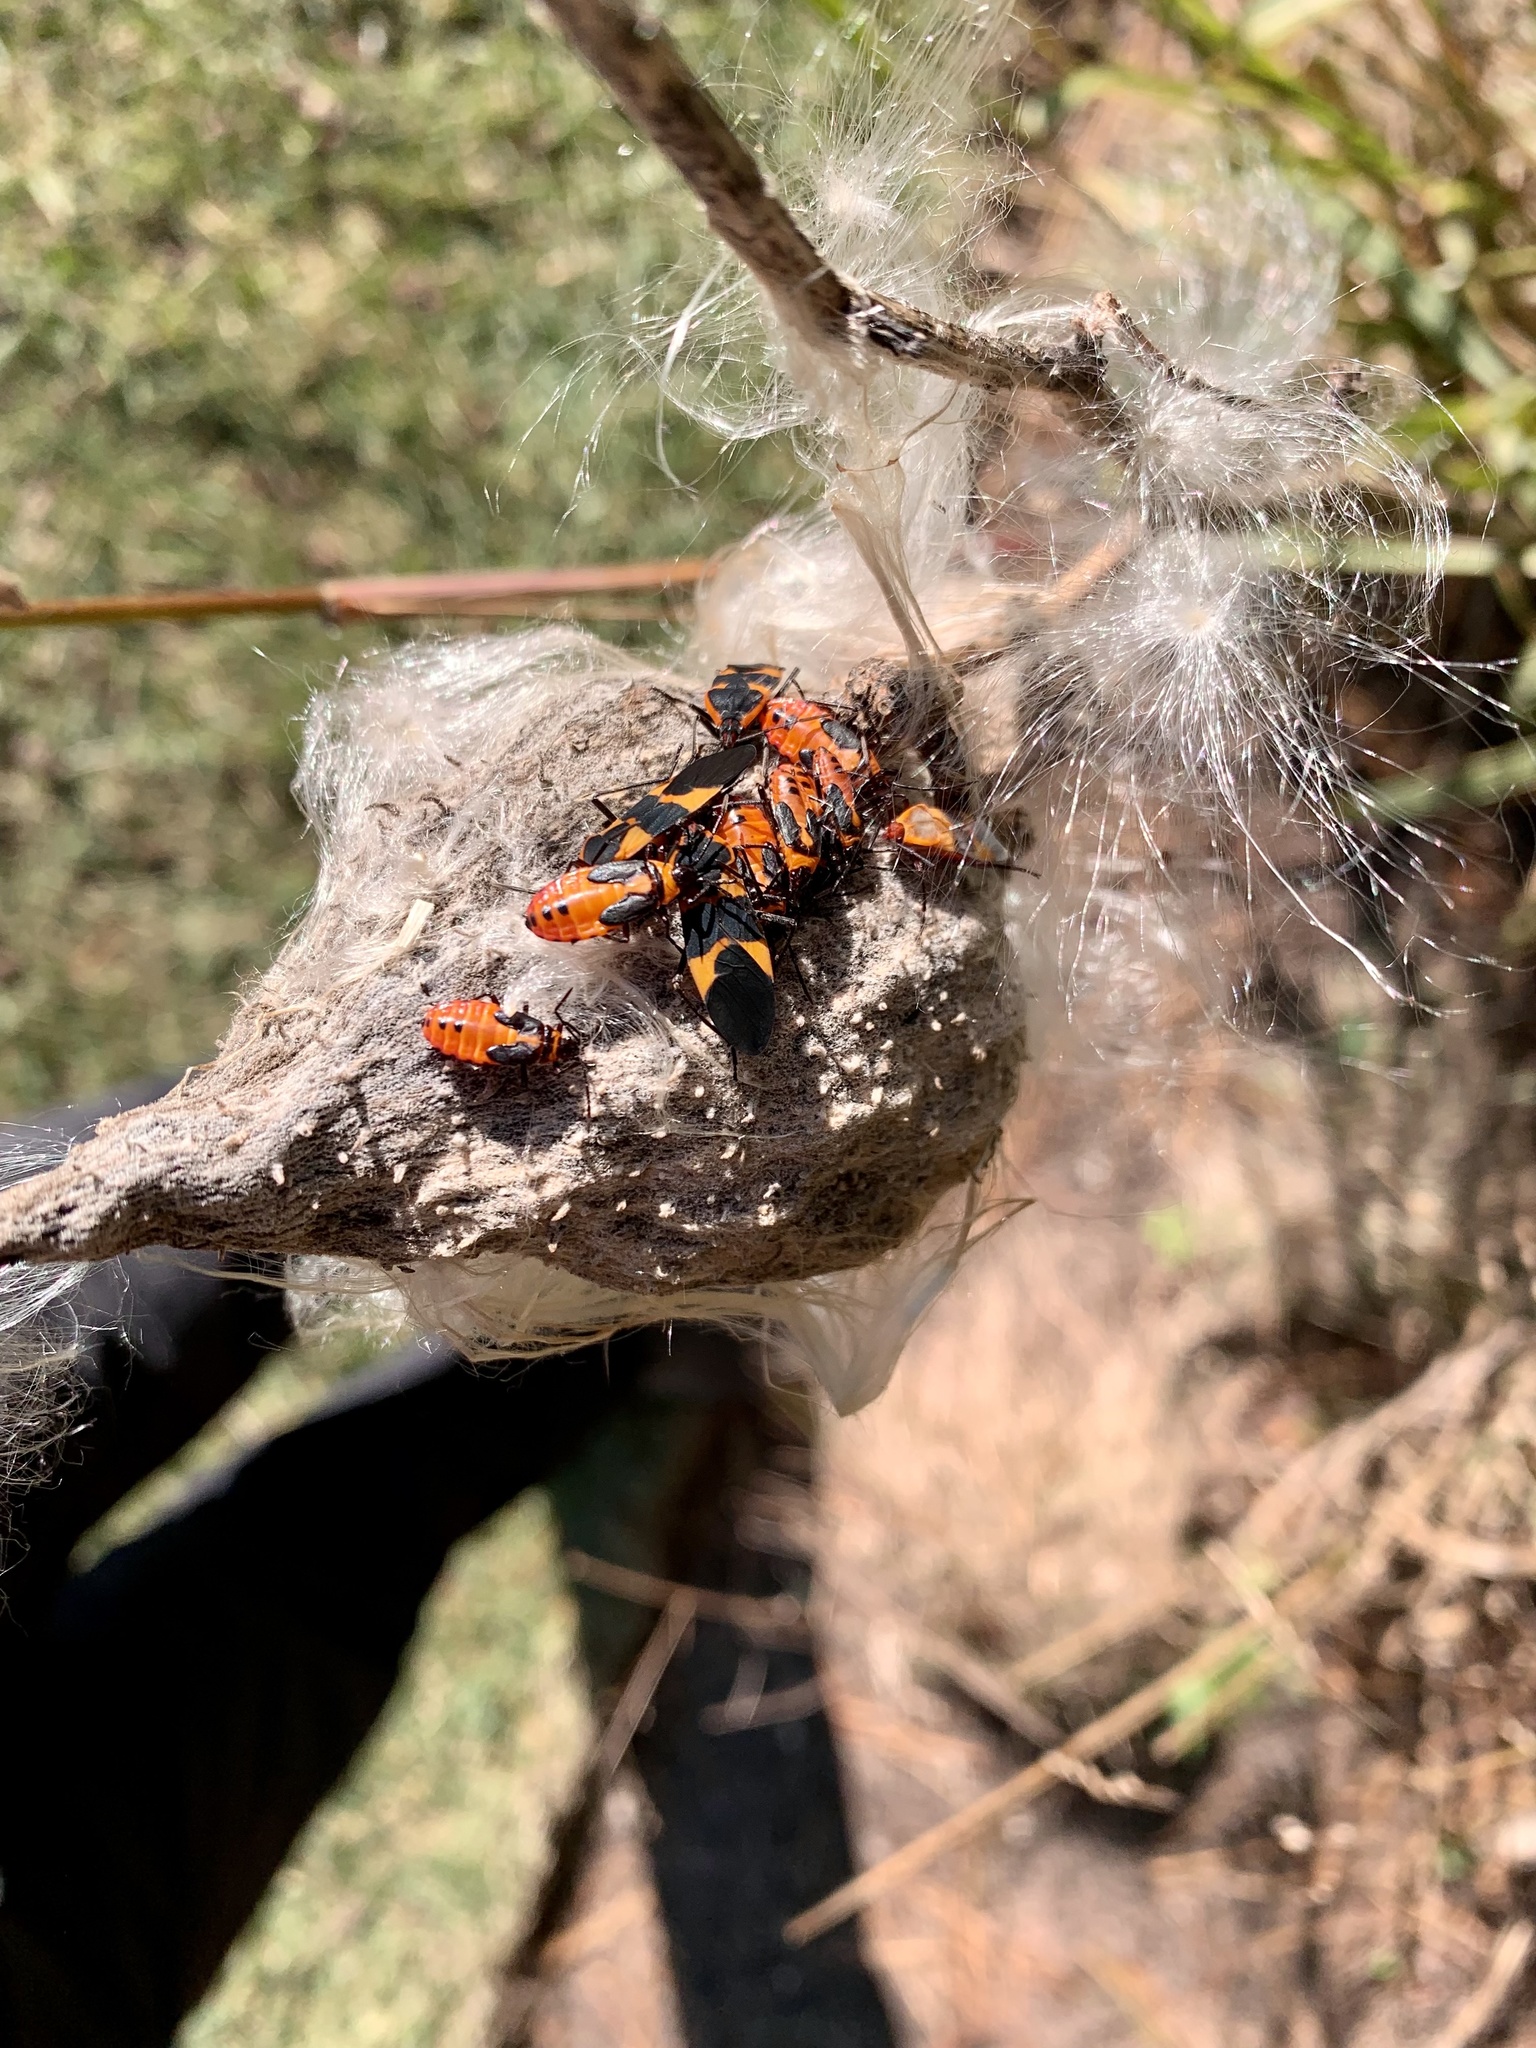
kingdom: Animalia
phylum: Arthropoda
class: Insecta
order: Hemiptera
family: Lygaeidae
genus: Oncopeltus
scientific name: Oncopeltus fasciatus
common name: Large milkweed bug
